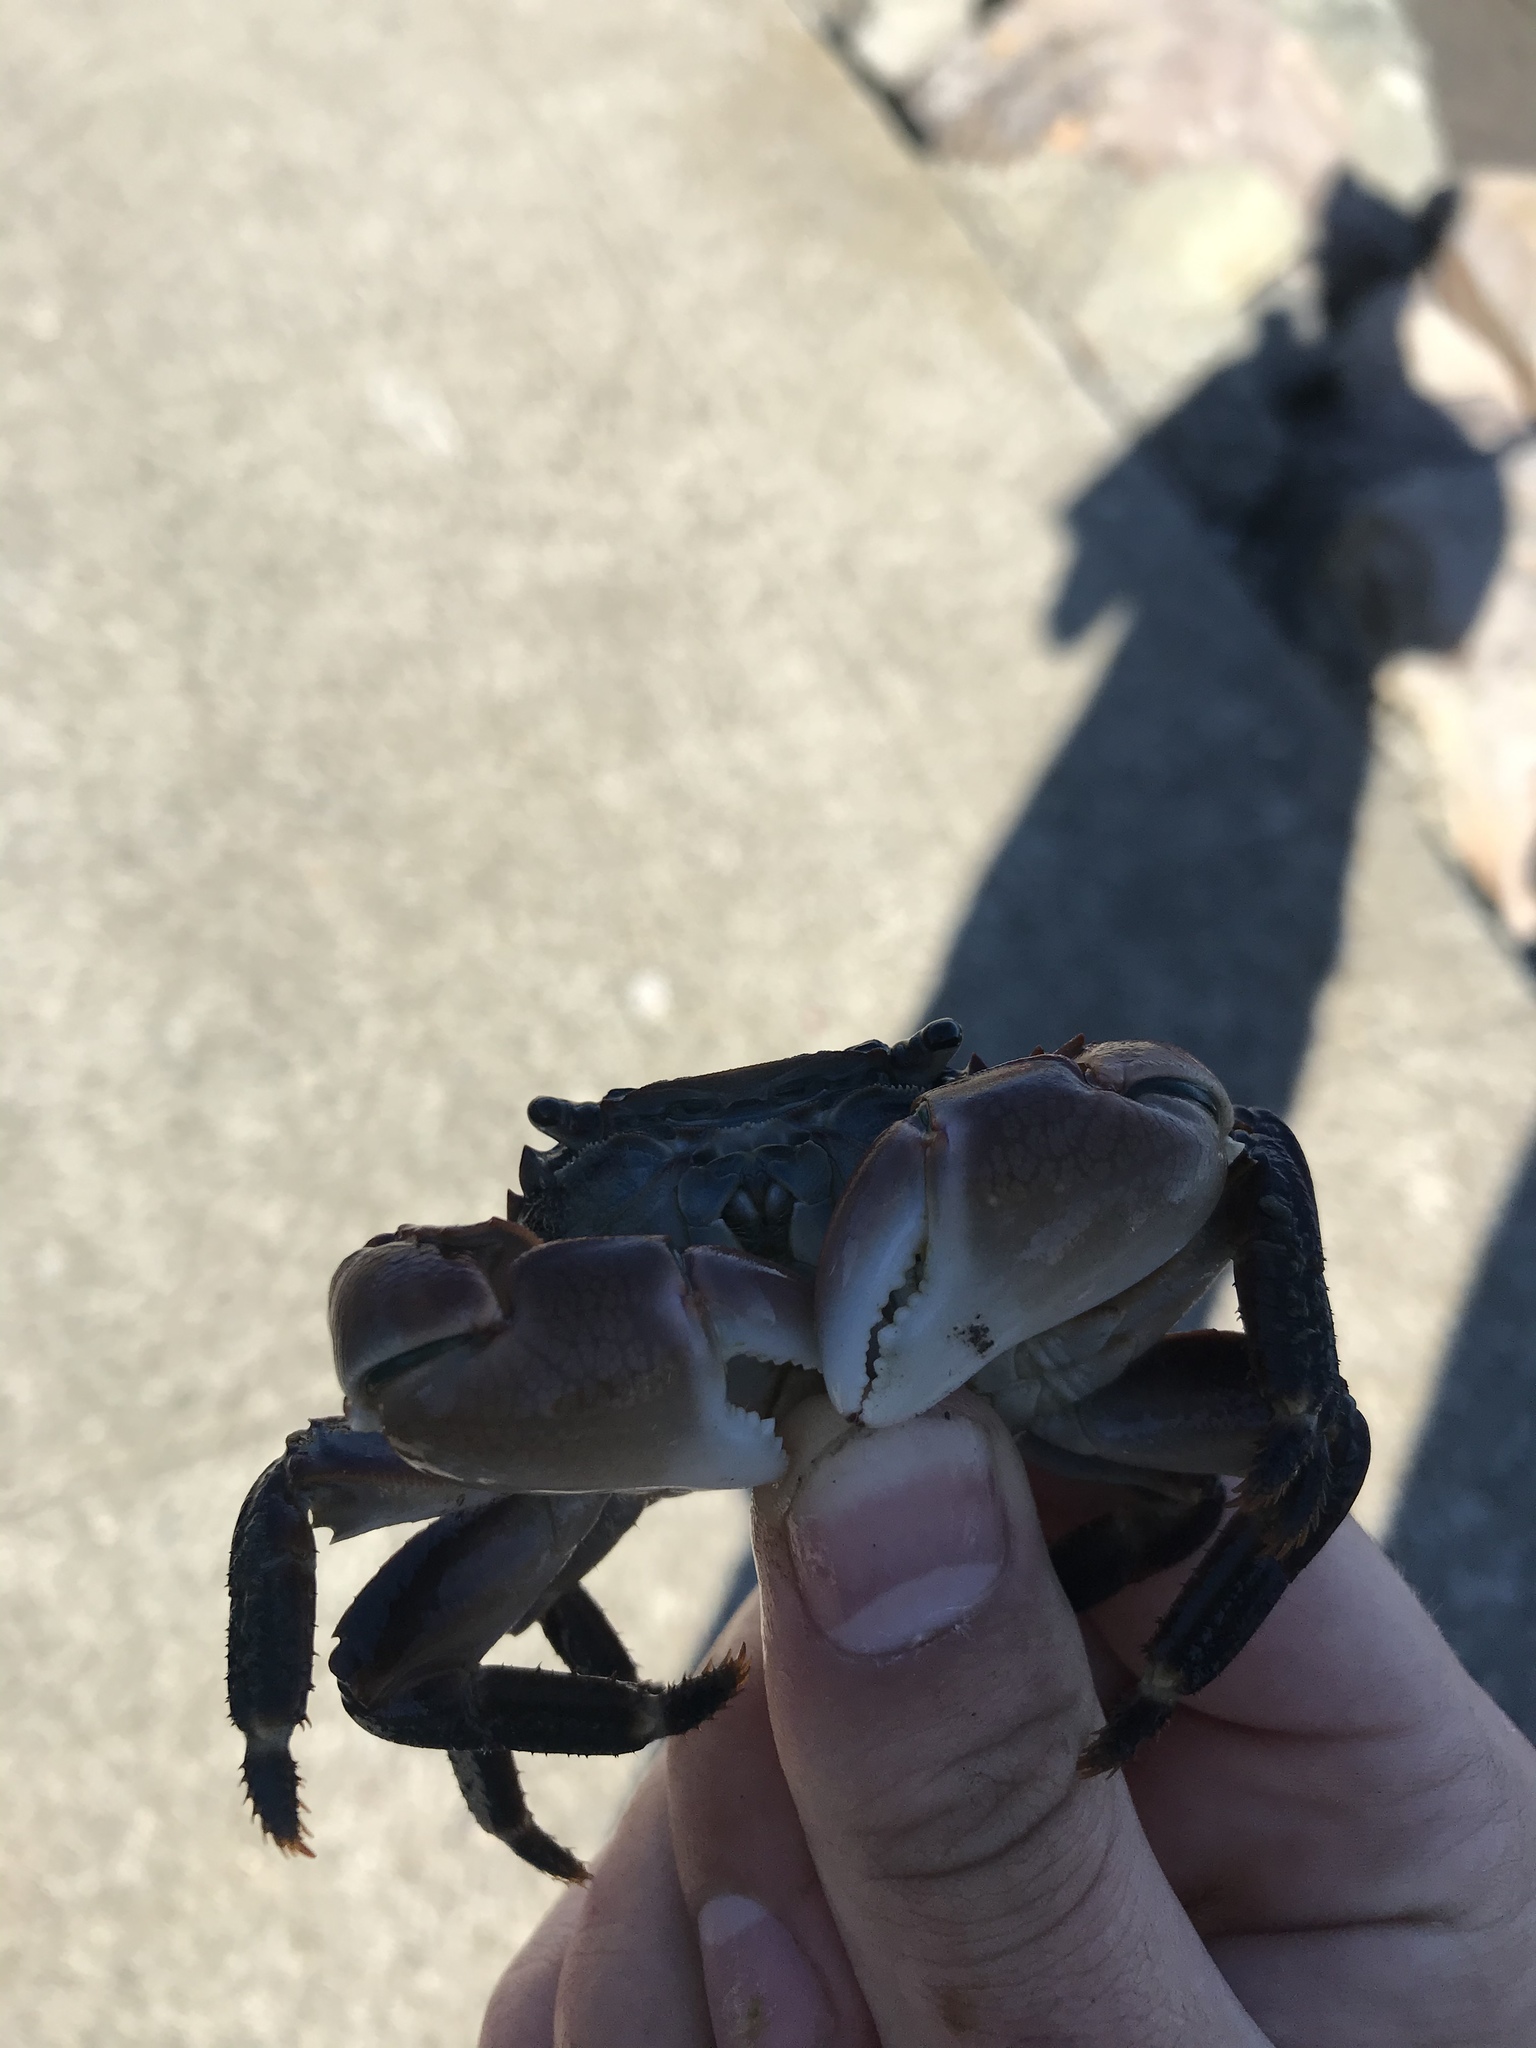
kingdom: Animalia
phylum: Arthropoda
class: Malacostraca
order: Decapoda
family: Grapsidae
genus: Pachygrapsus
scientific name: Pachygrapsus crassipes
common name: Striped shore crab
